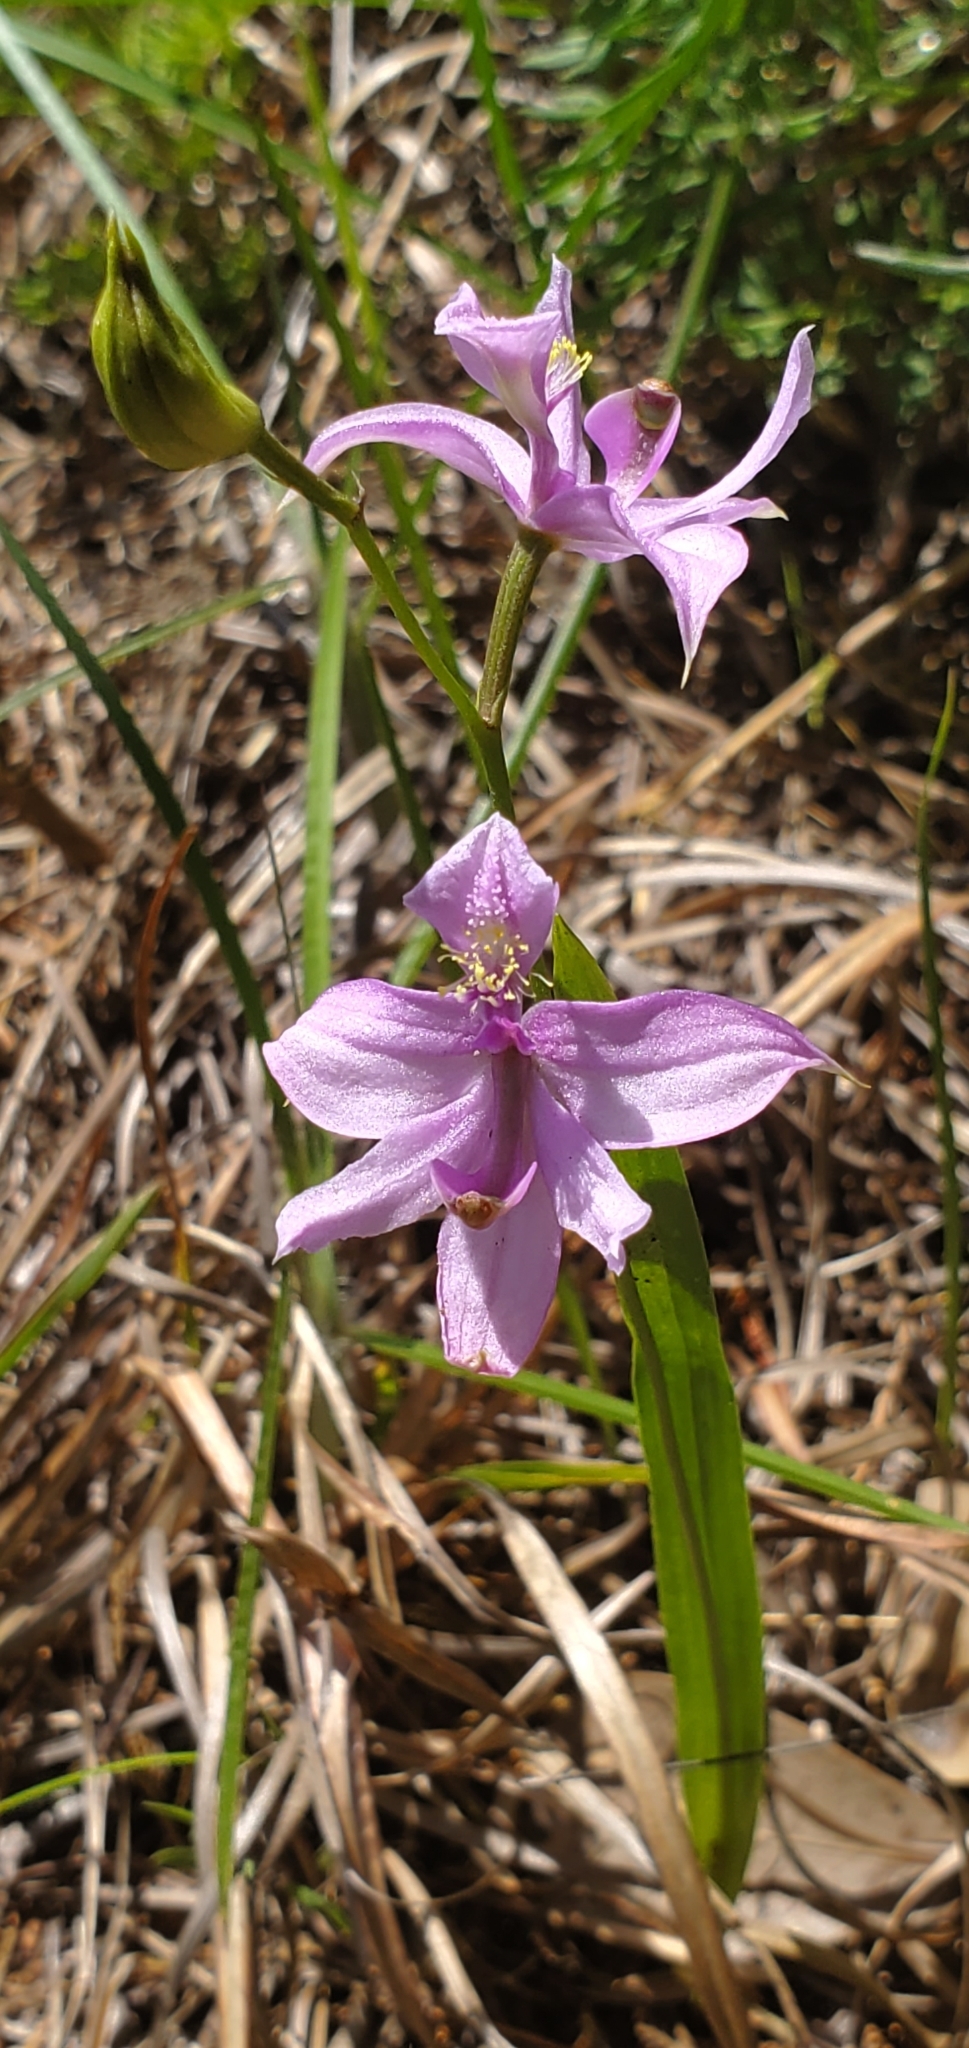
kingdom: Plantae
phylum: Tracheophyta
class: Liliopsida
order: Asparagales
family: Orchidaceae
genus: Calopogon
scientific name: Calopogon oklahomensis
